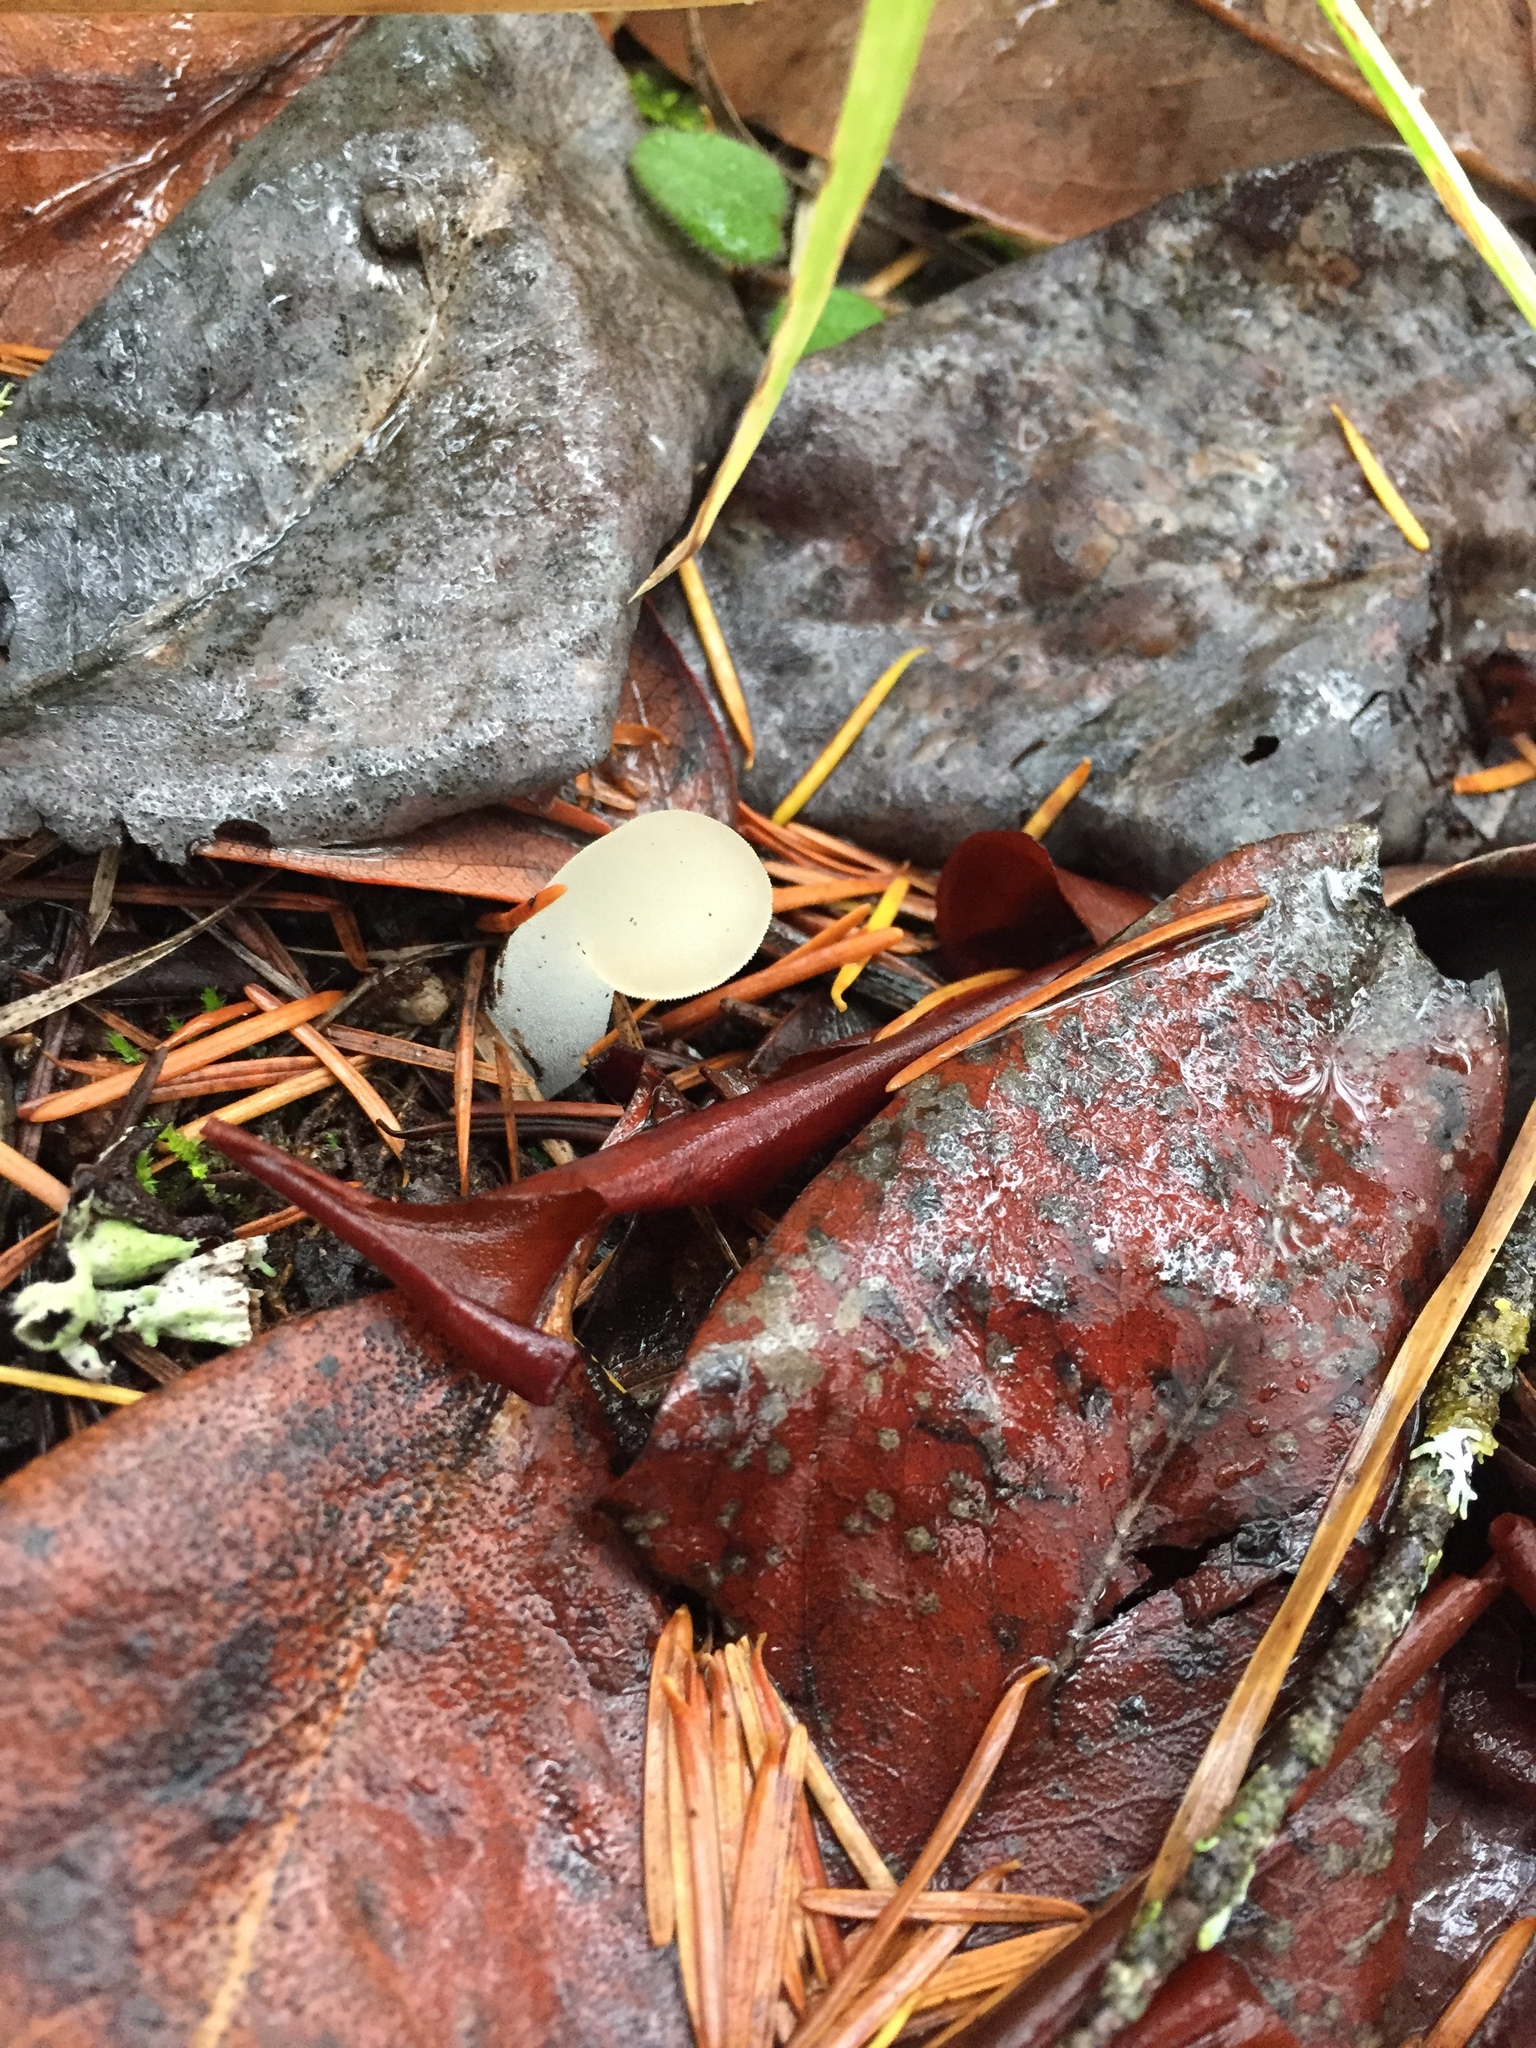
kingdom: Fungi
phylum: Basidiomycota
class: Agaricomycetes
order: Auriculariales
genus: Pseudohydnum
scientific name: Pseudohydnum gelatinosum
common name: Jelly tongue
